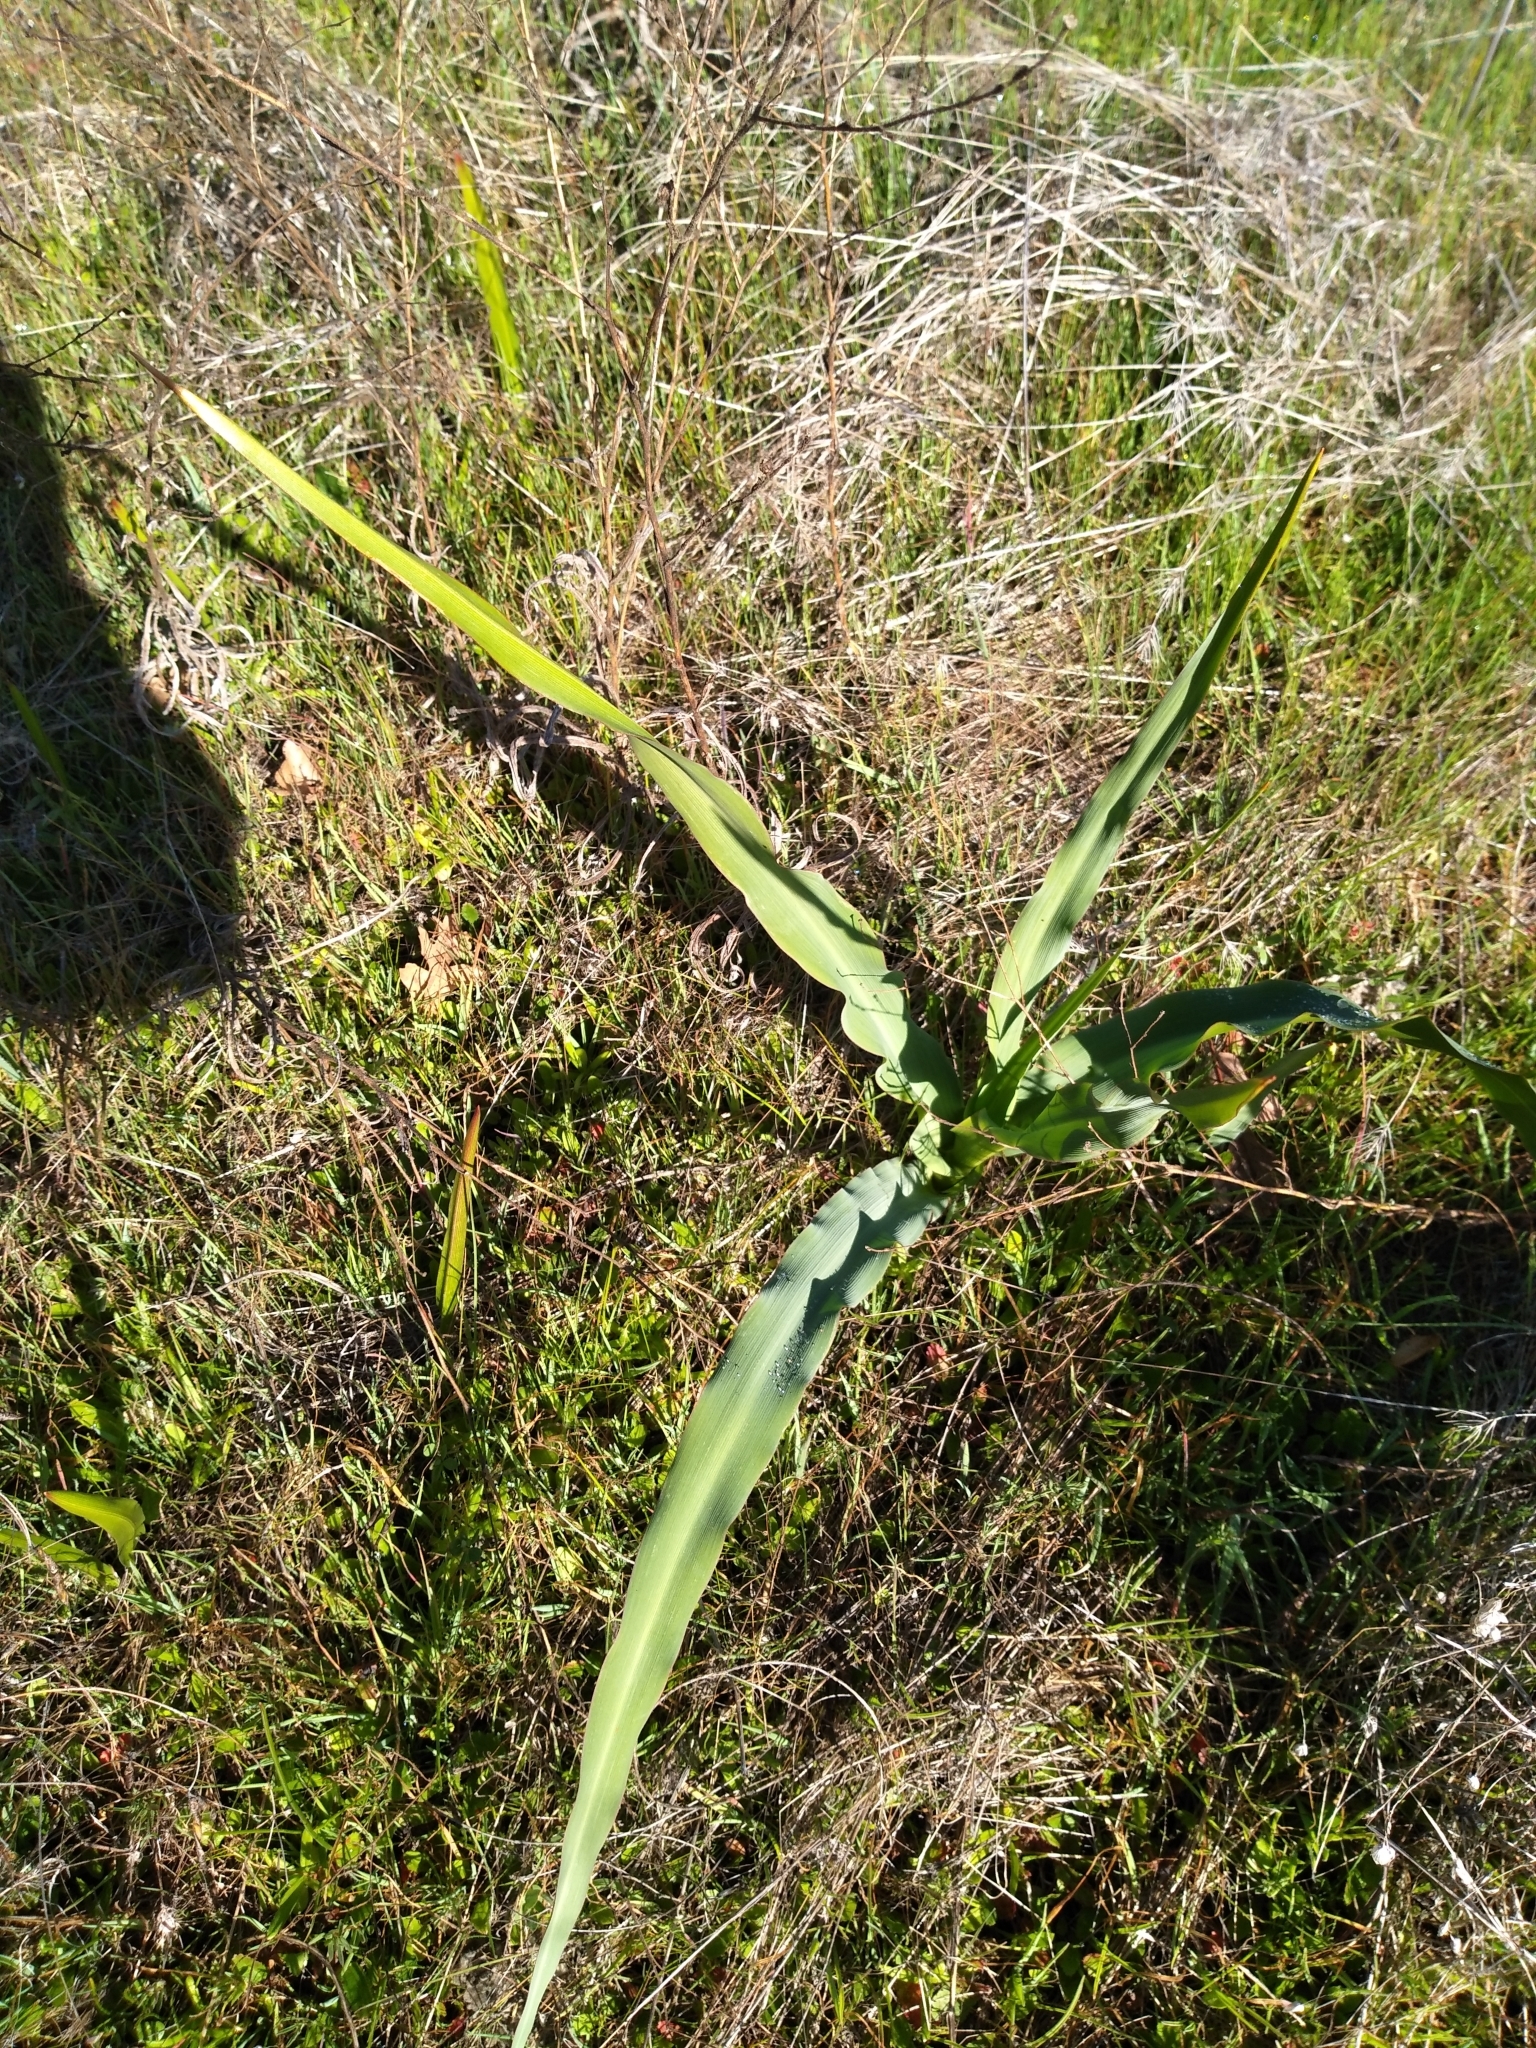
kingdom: Plantae
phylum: Tracheophyta
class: Liliopsida
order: Asparagales
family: Asparagaceae
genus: Chlorogalum
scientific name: Chlorogalum pomeridianum
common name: Amole
